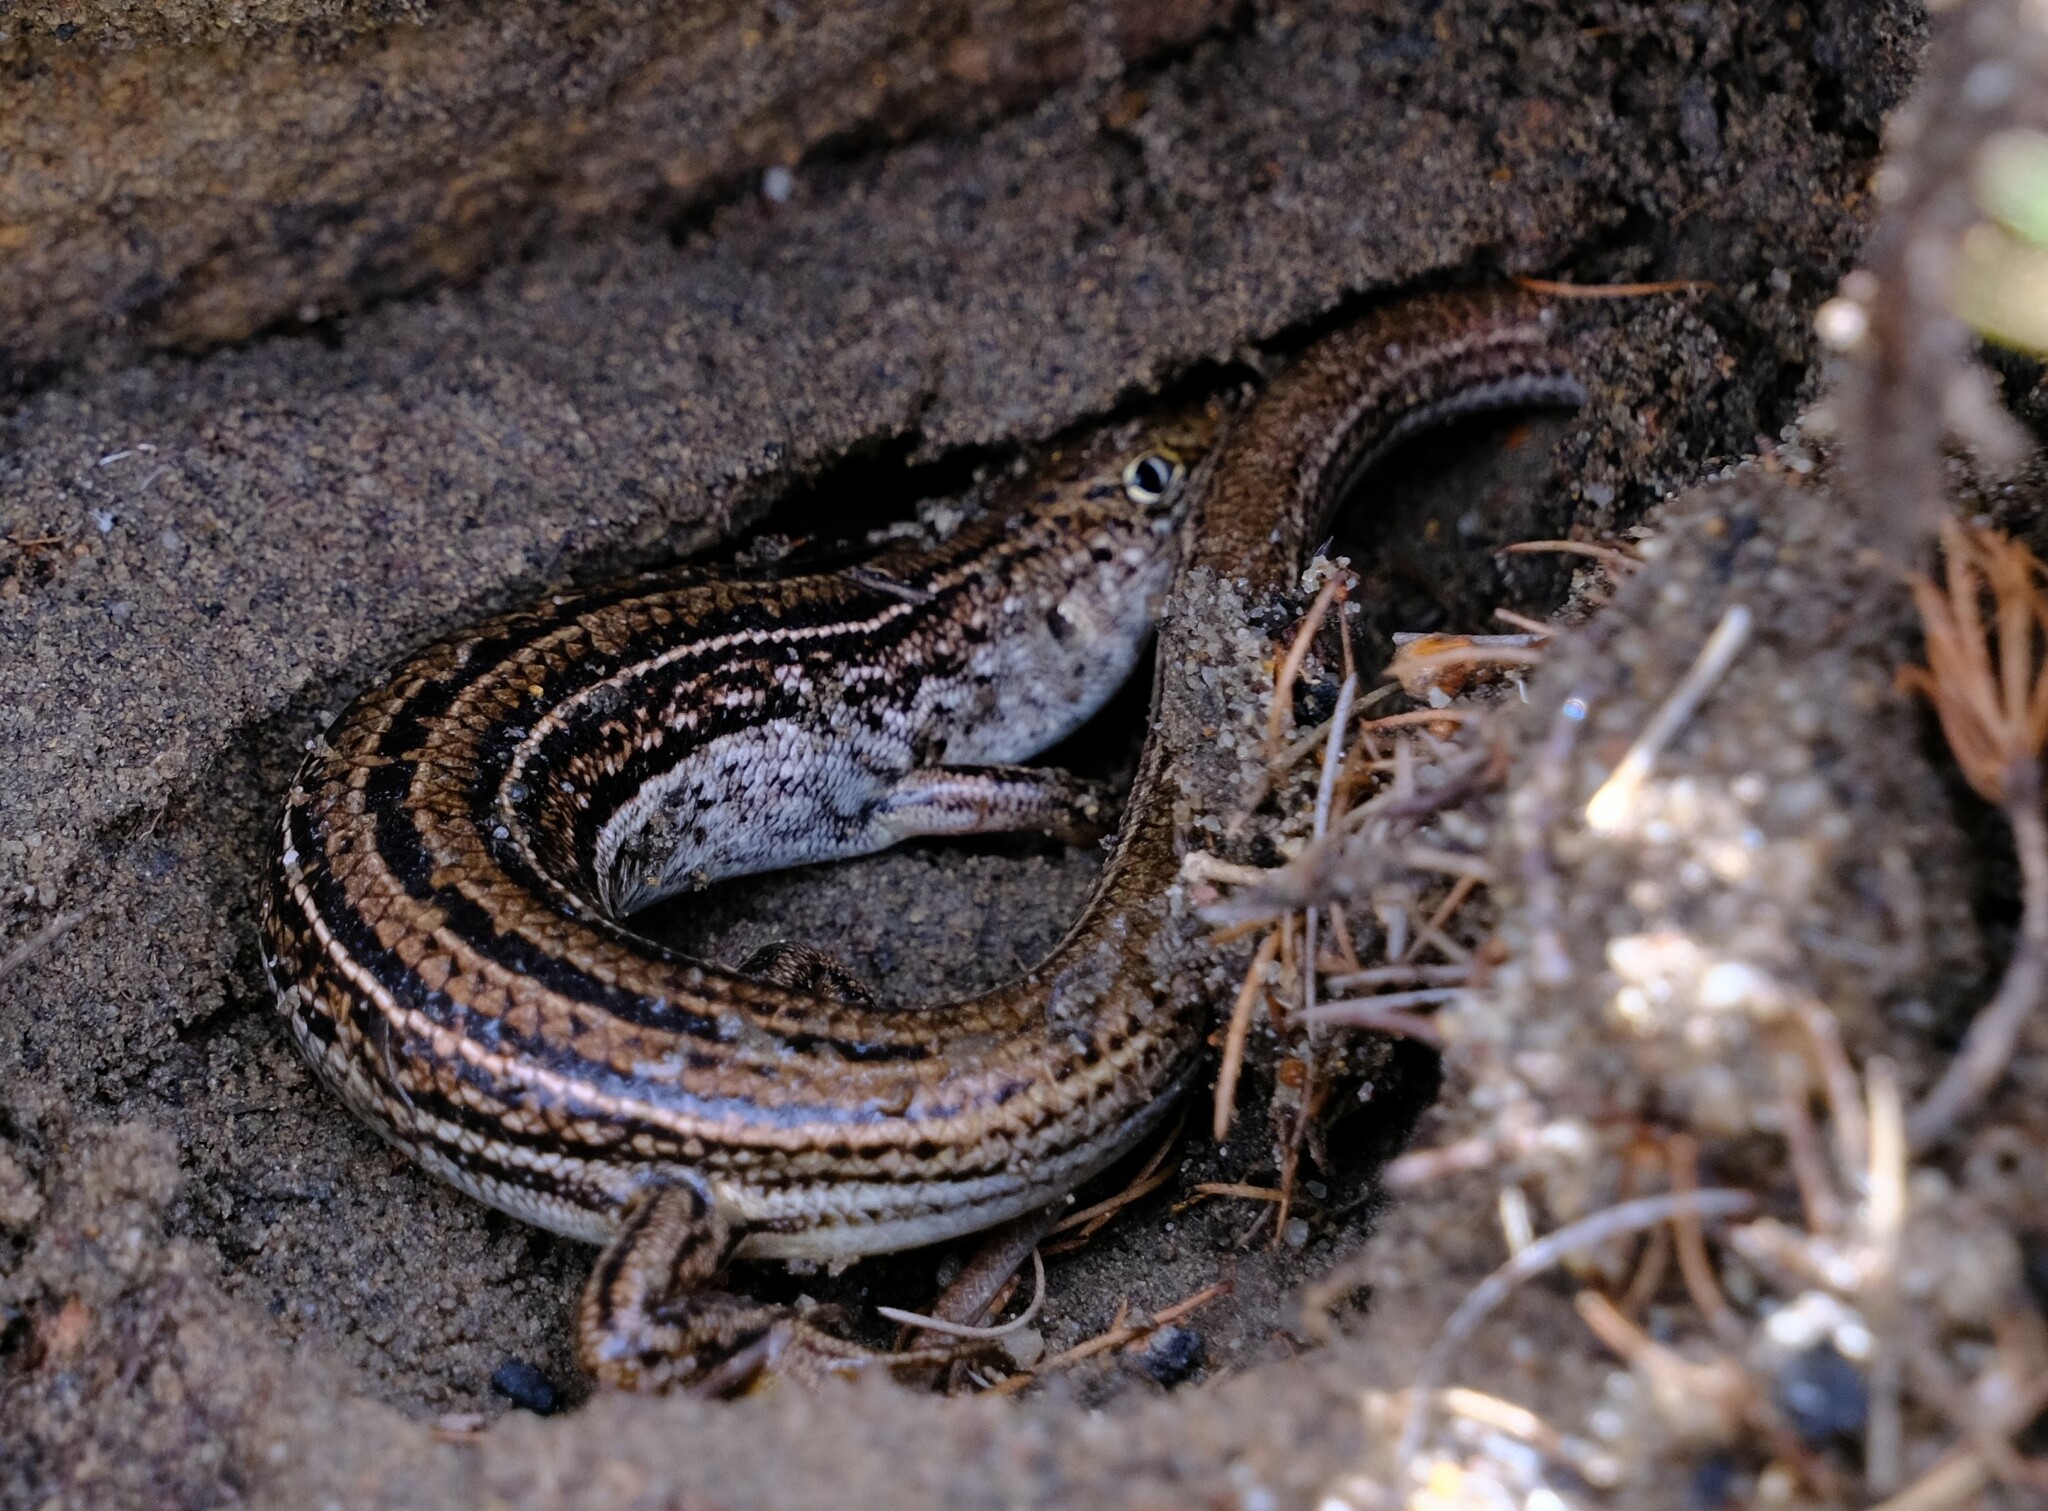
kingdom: Animalia
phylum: Chordata
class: Squamata
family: Scincidae
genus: Ctenotus
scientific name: Ctenotus fallens
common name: West-coast laterite ctenotus
